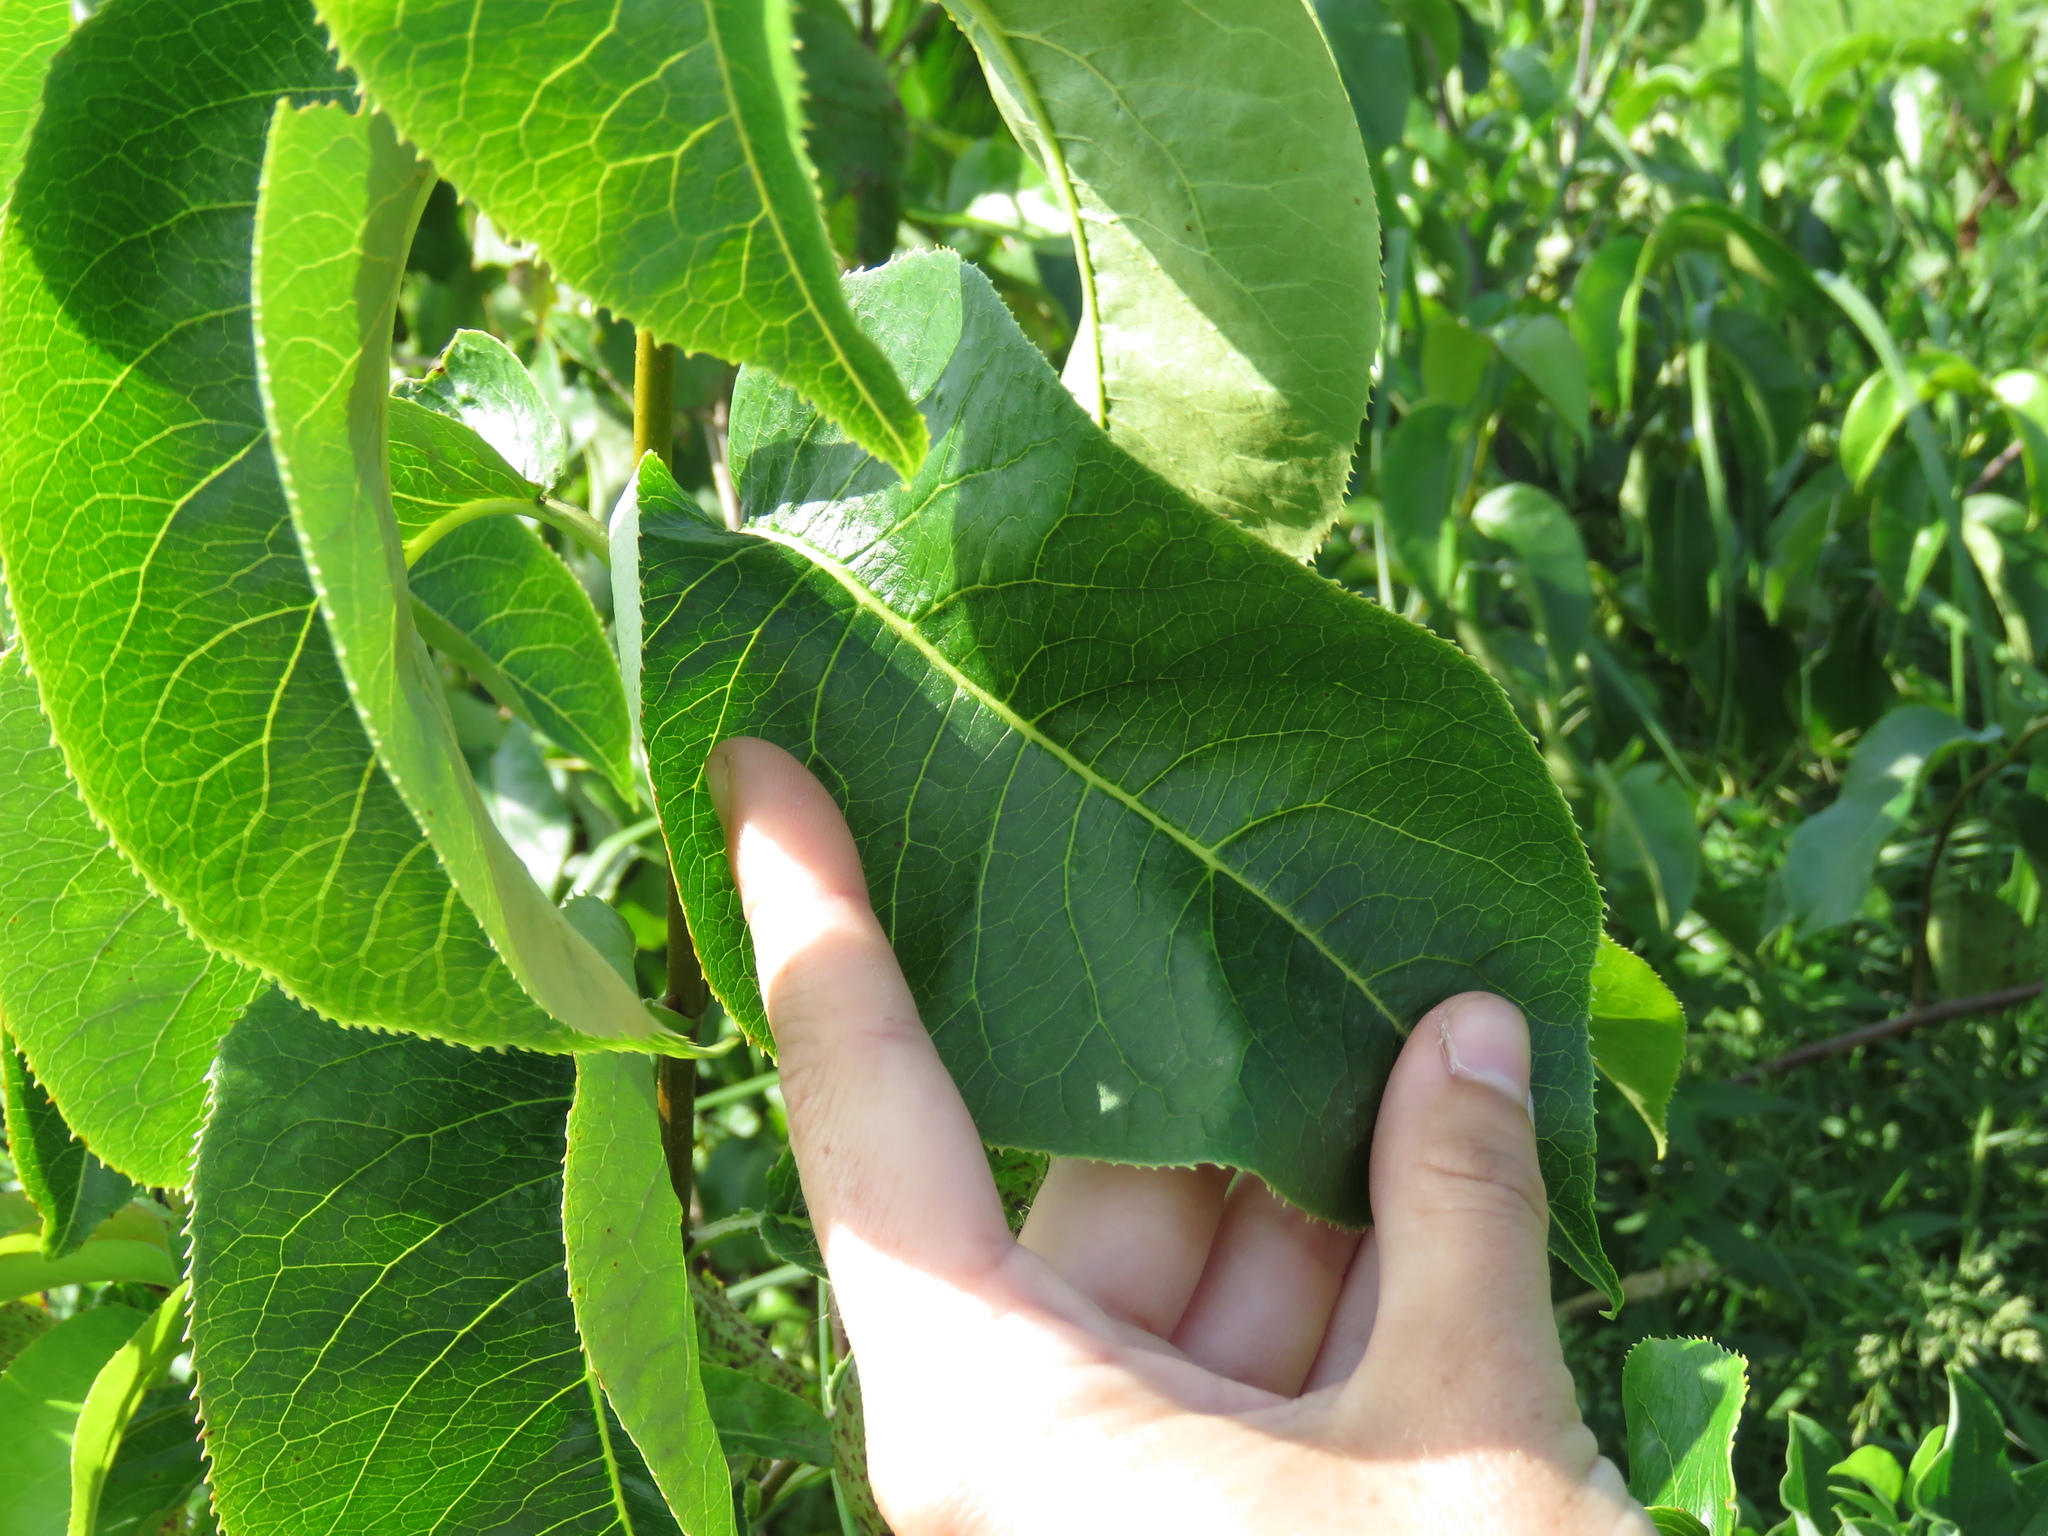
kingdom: Plantae
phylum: Tracheophyta
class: Magnoliopsida
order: Dipsacales
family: Viburnaceae
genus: Viburnum
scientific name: Viburnum lentago
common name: Black haw
